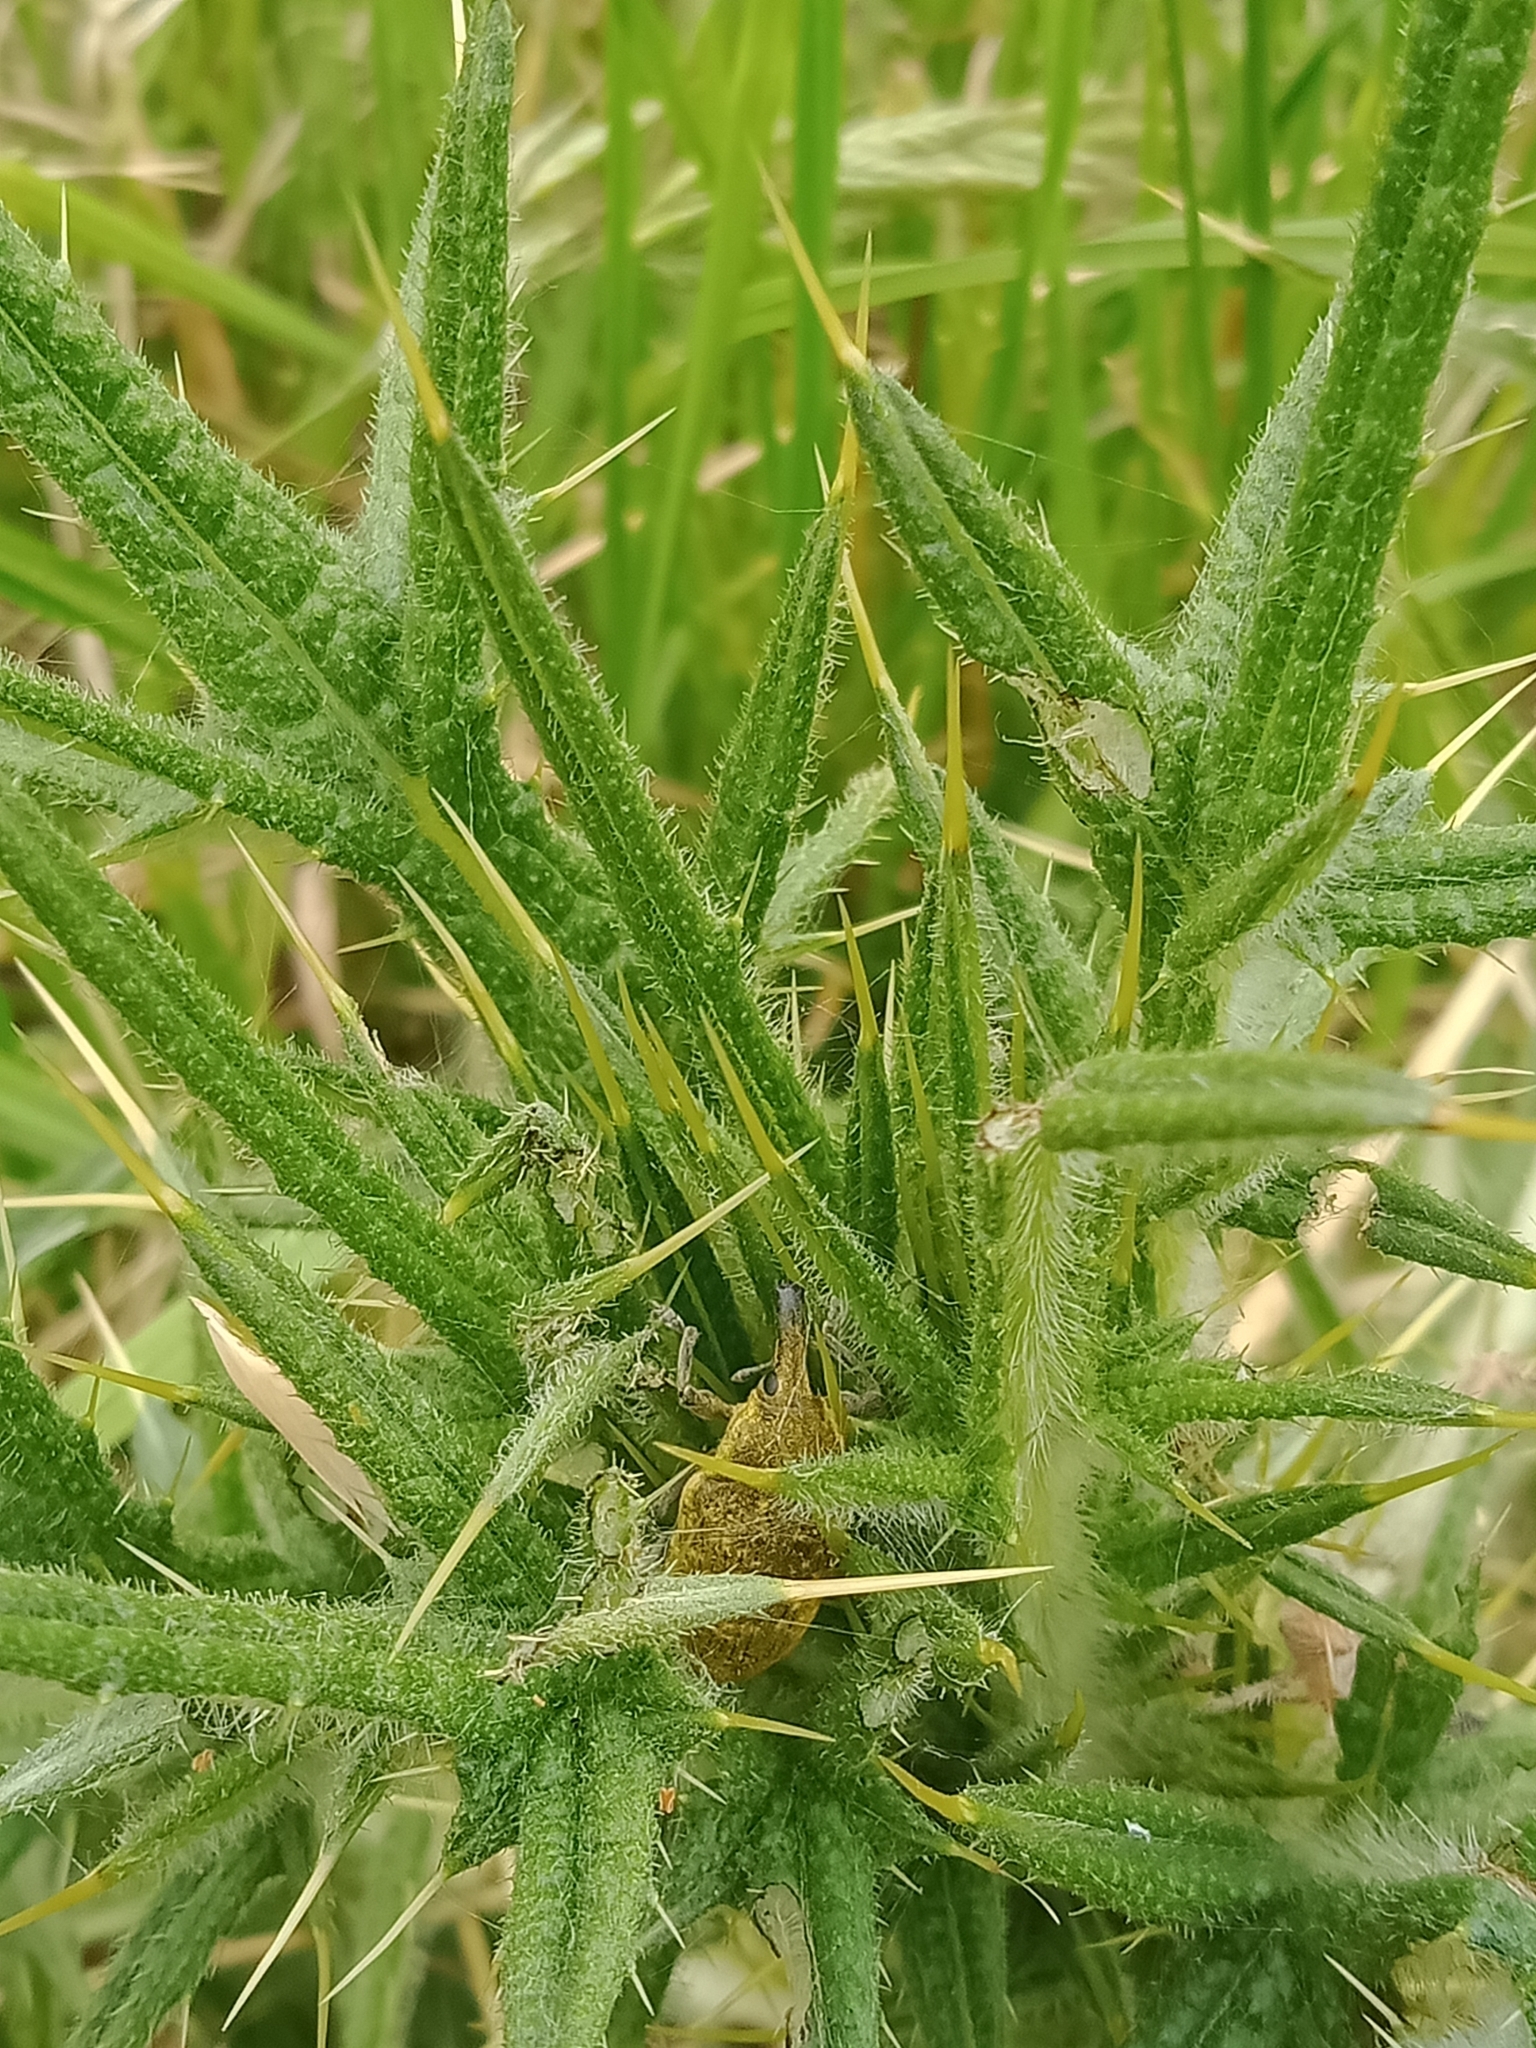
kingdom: Animalia
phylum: Arthropoda
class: Insecta
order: Coleoptera
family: Curculionidae
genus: Larinus
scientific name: Larinus latus
